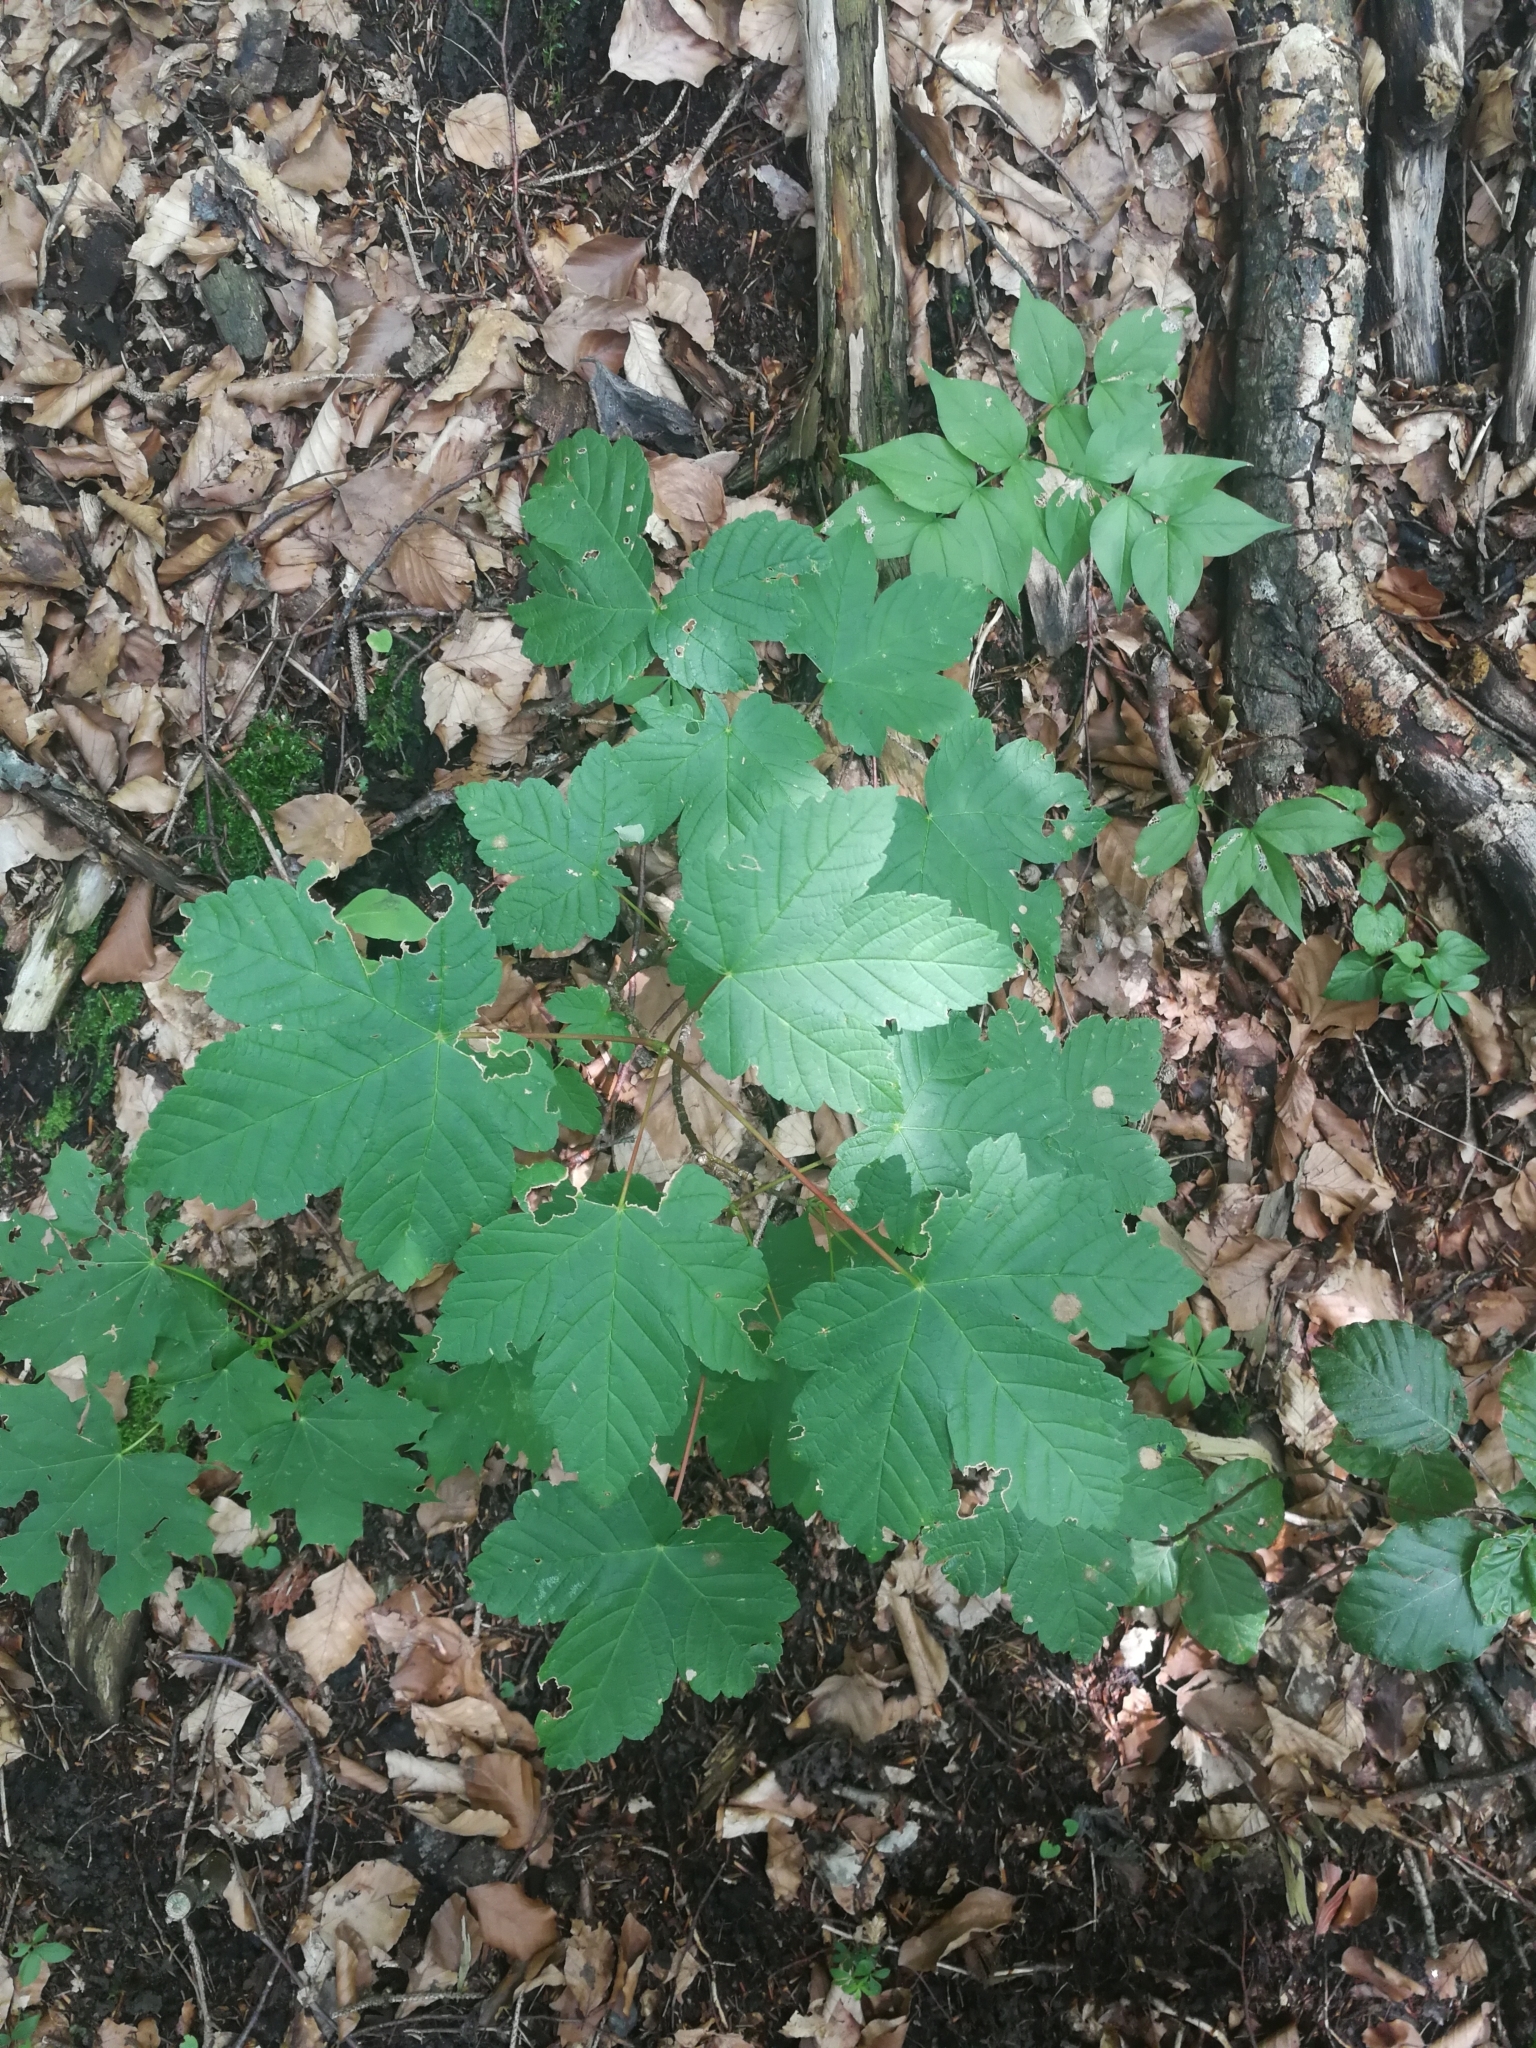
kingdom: Plantae
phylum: Tracheophyta
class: Magnoliopsida
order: Sapindales
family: Sapindaceae
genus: Acer
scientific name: Acer pseudoplatanus
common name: Sycamore
